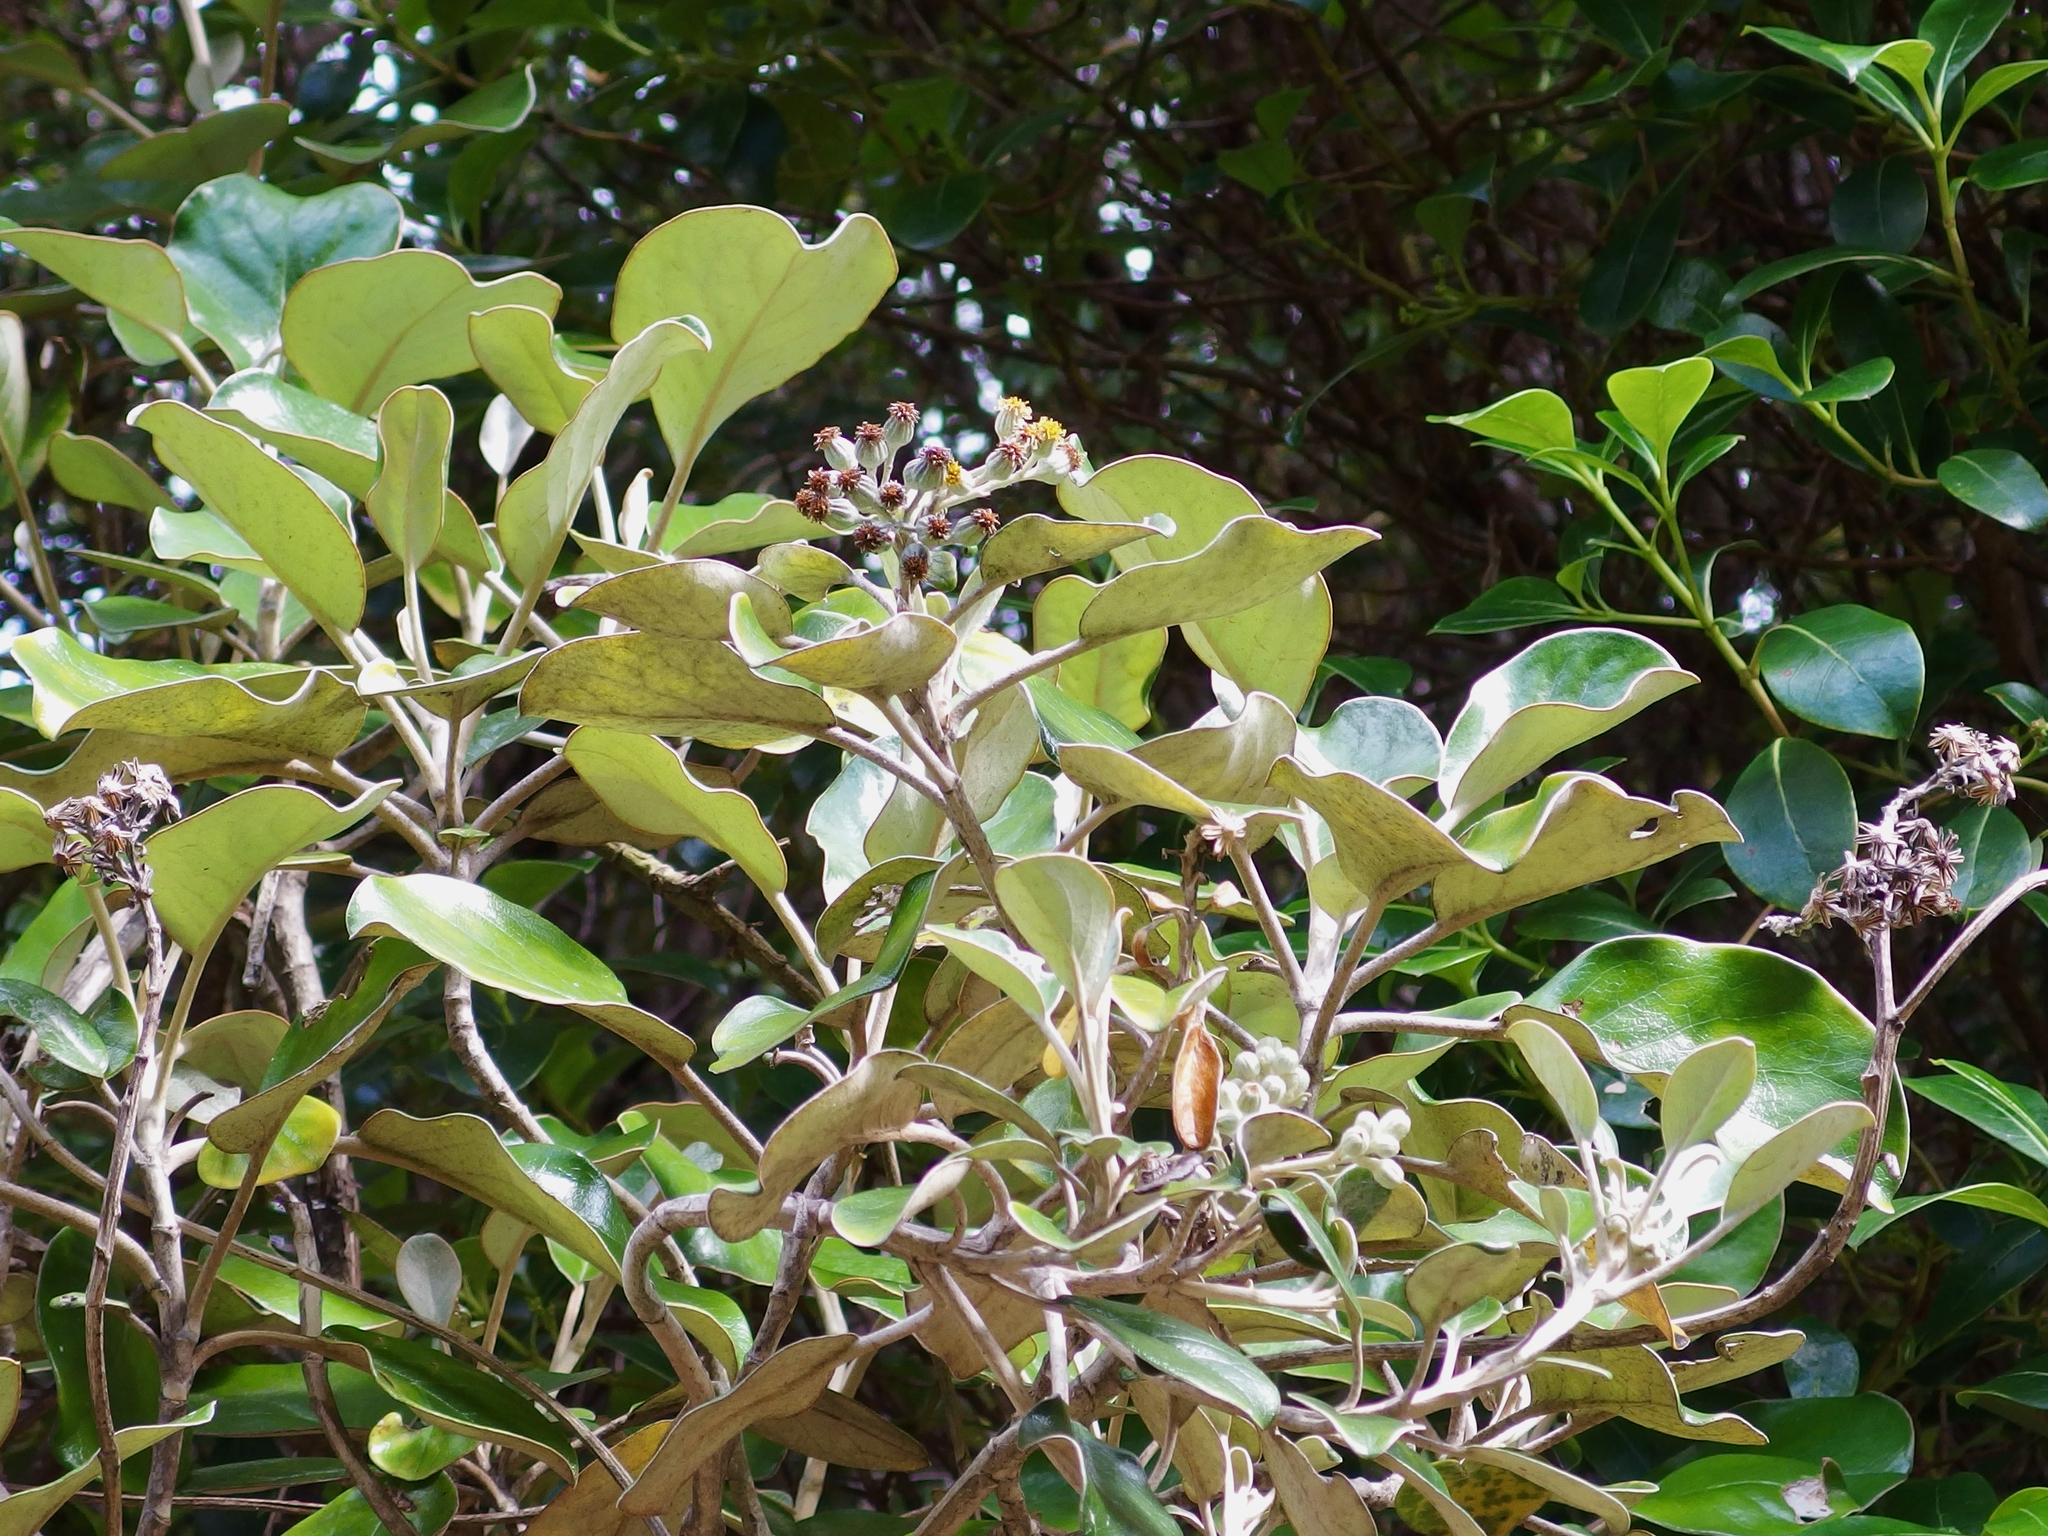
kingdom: Plantae
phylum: Tracheophyta
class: Magnoliopsida
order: Asterales
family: Asteraceae
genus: Brachyglottis
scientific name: Brachyglottis rotundifolia
